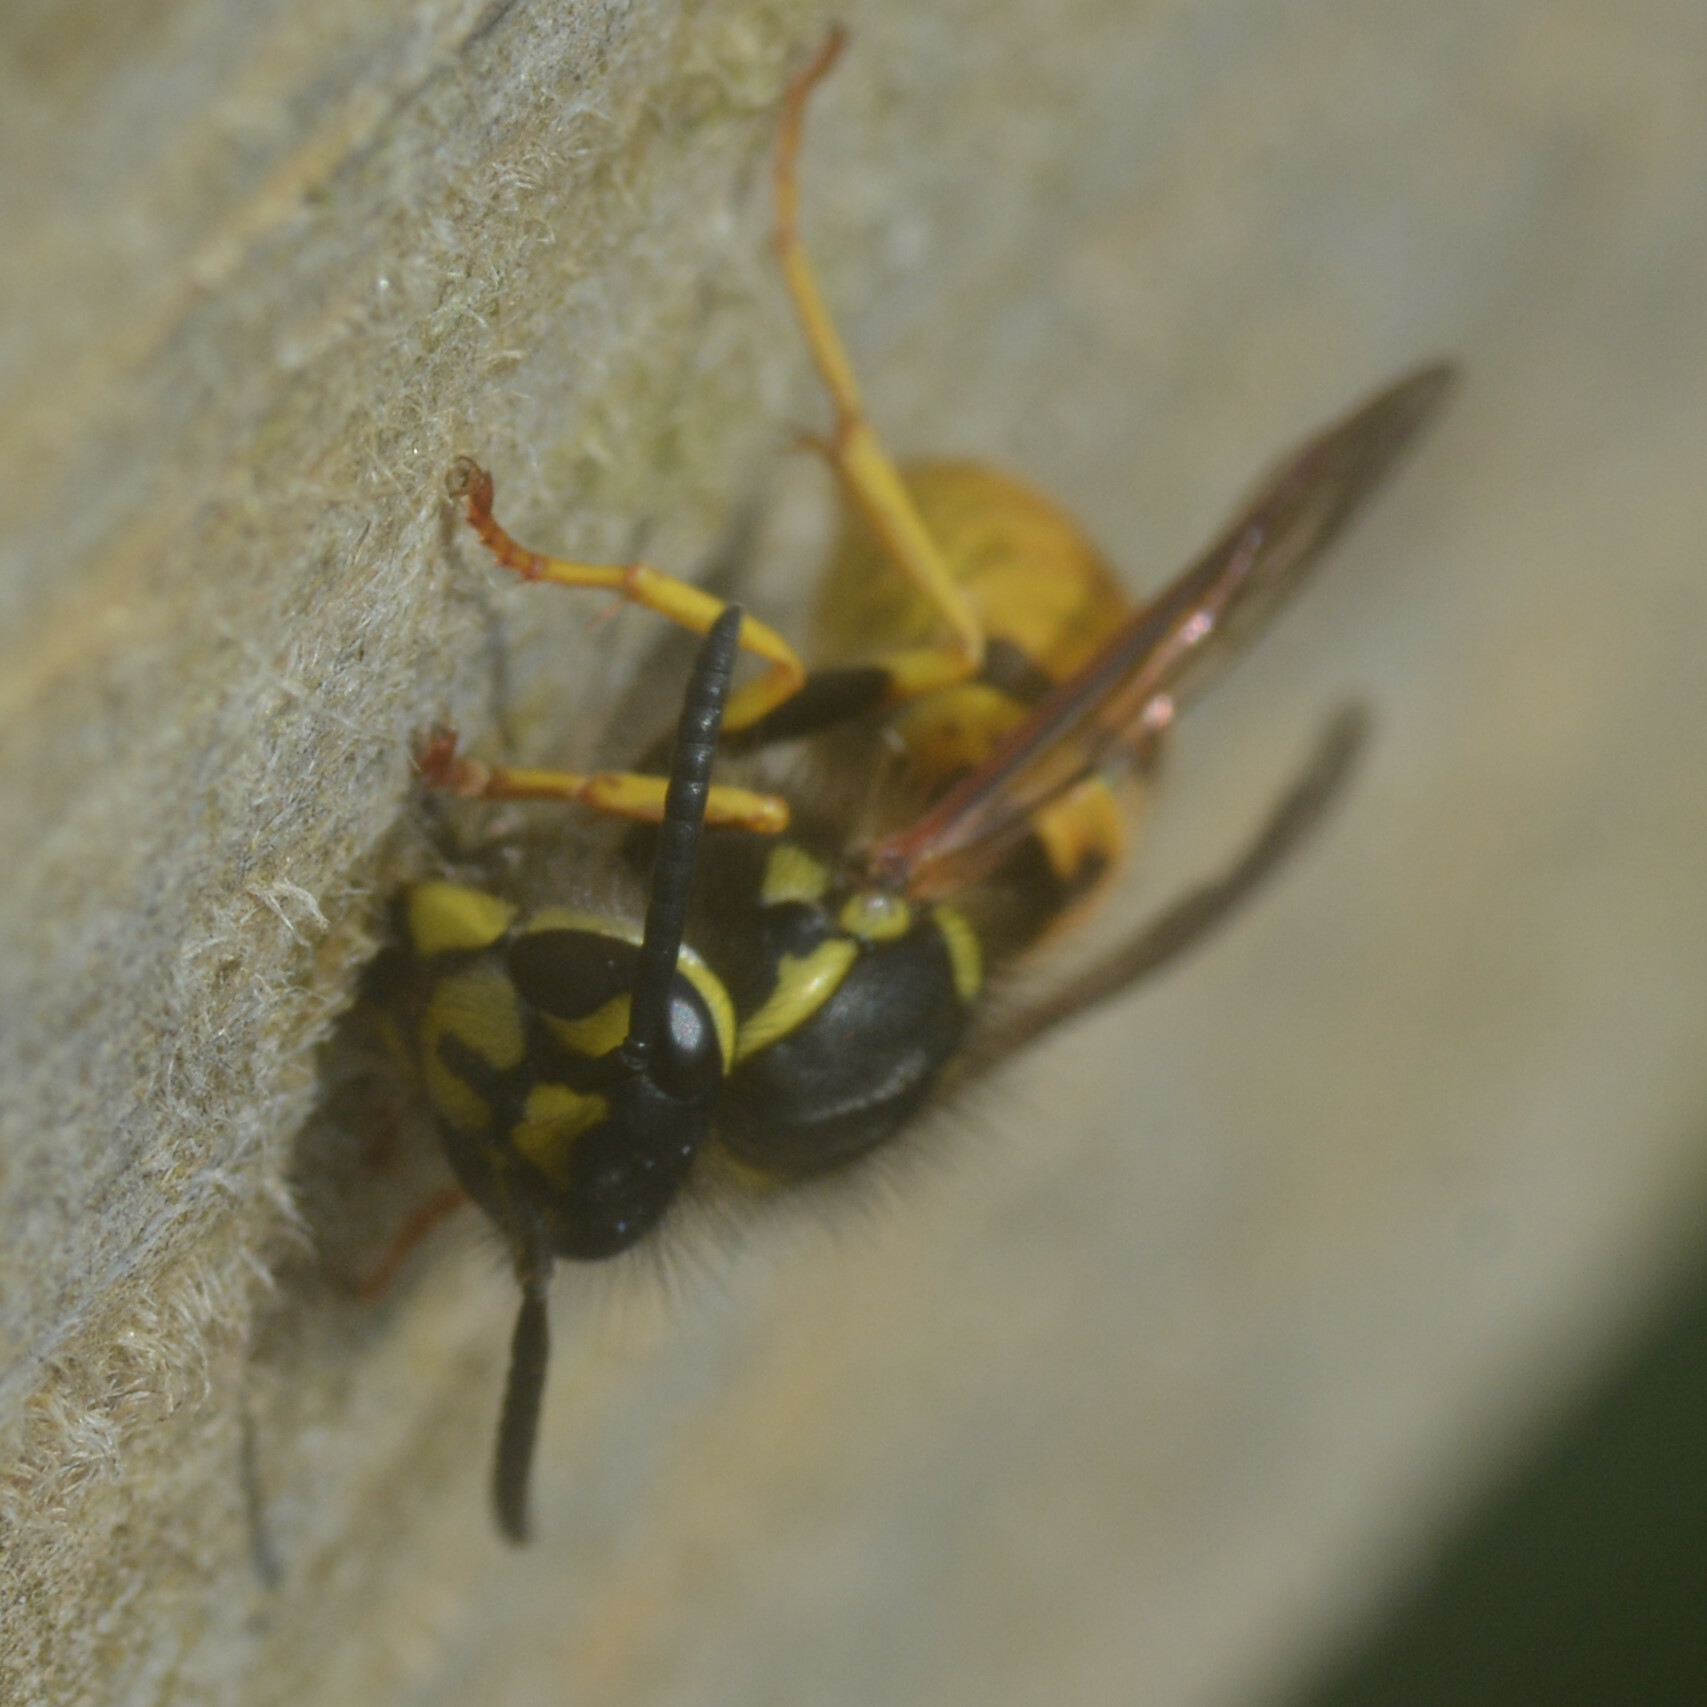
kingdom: Animalia
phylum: Arthropoda
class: Insecta
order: Hymenoptera
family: Vespidae
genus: Vespula
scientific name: Vespula germanica
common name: German wasp
